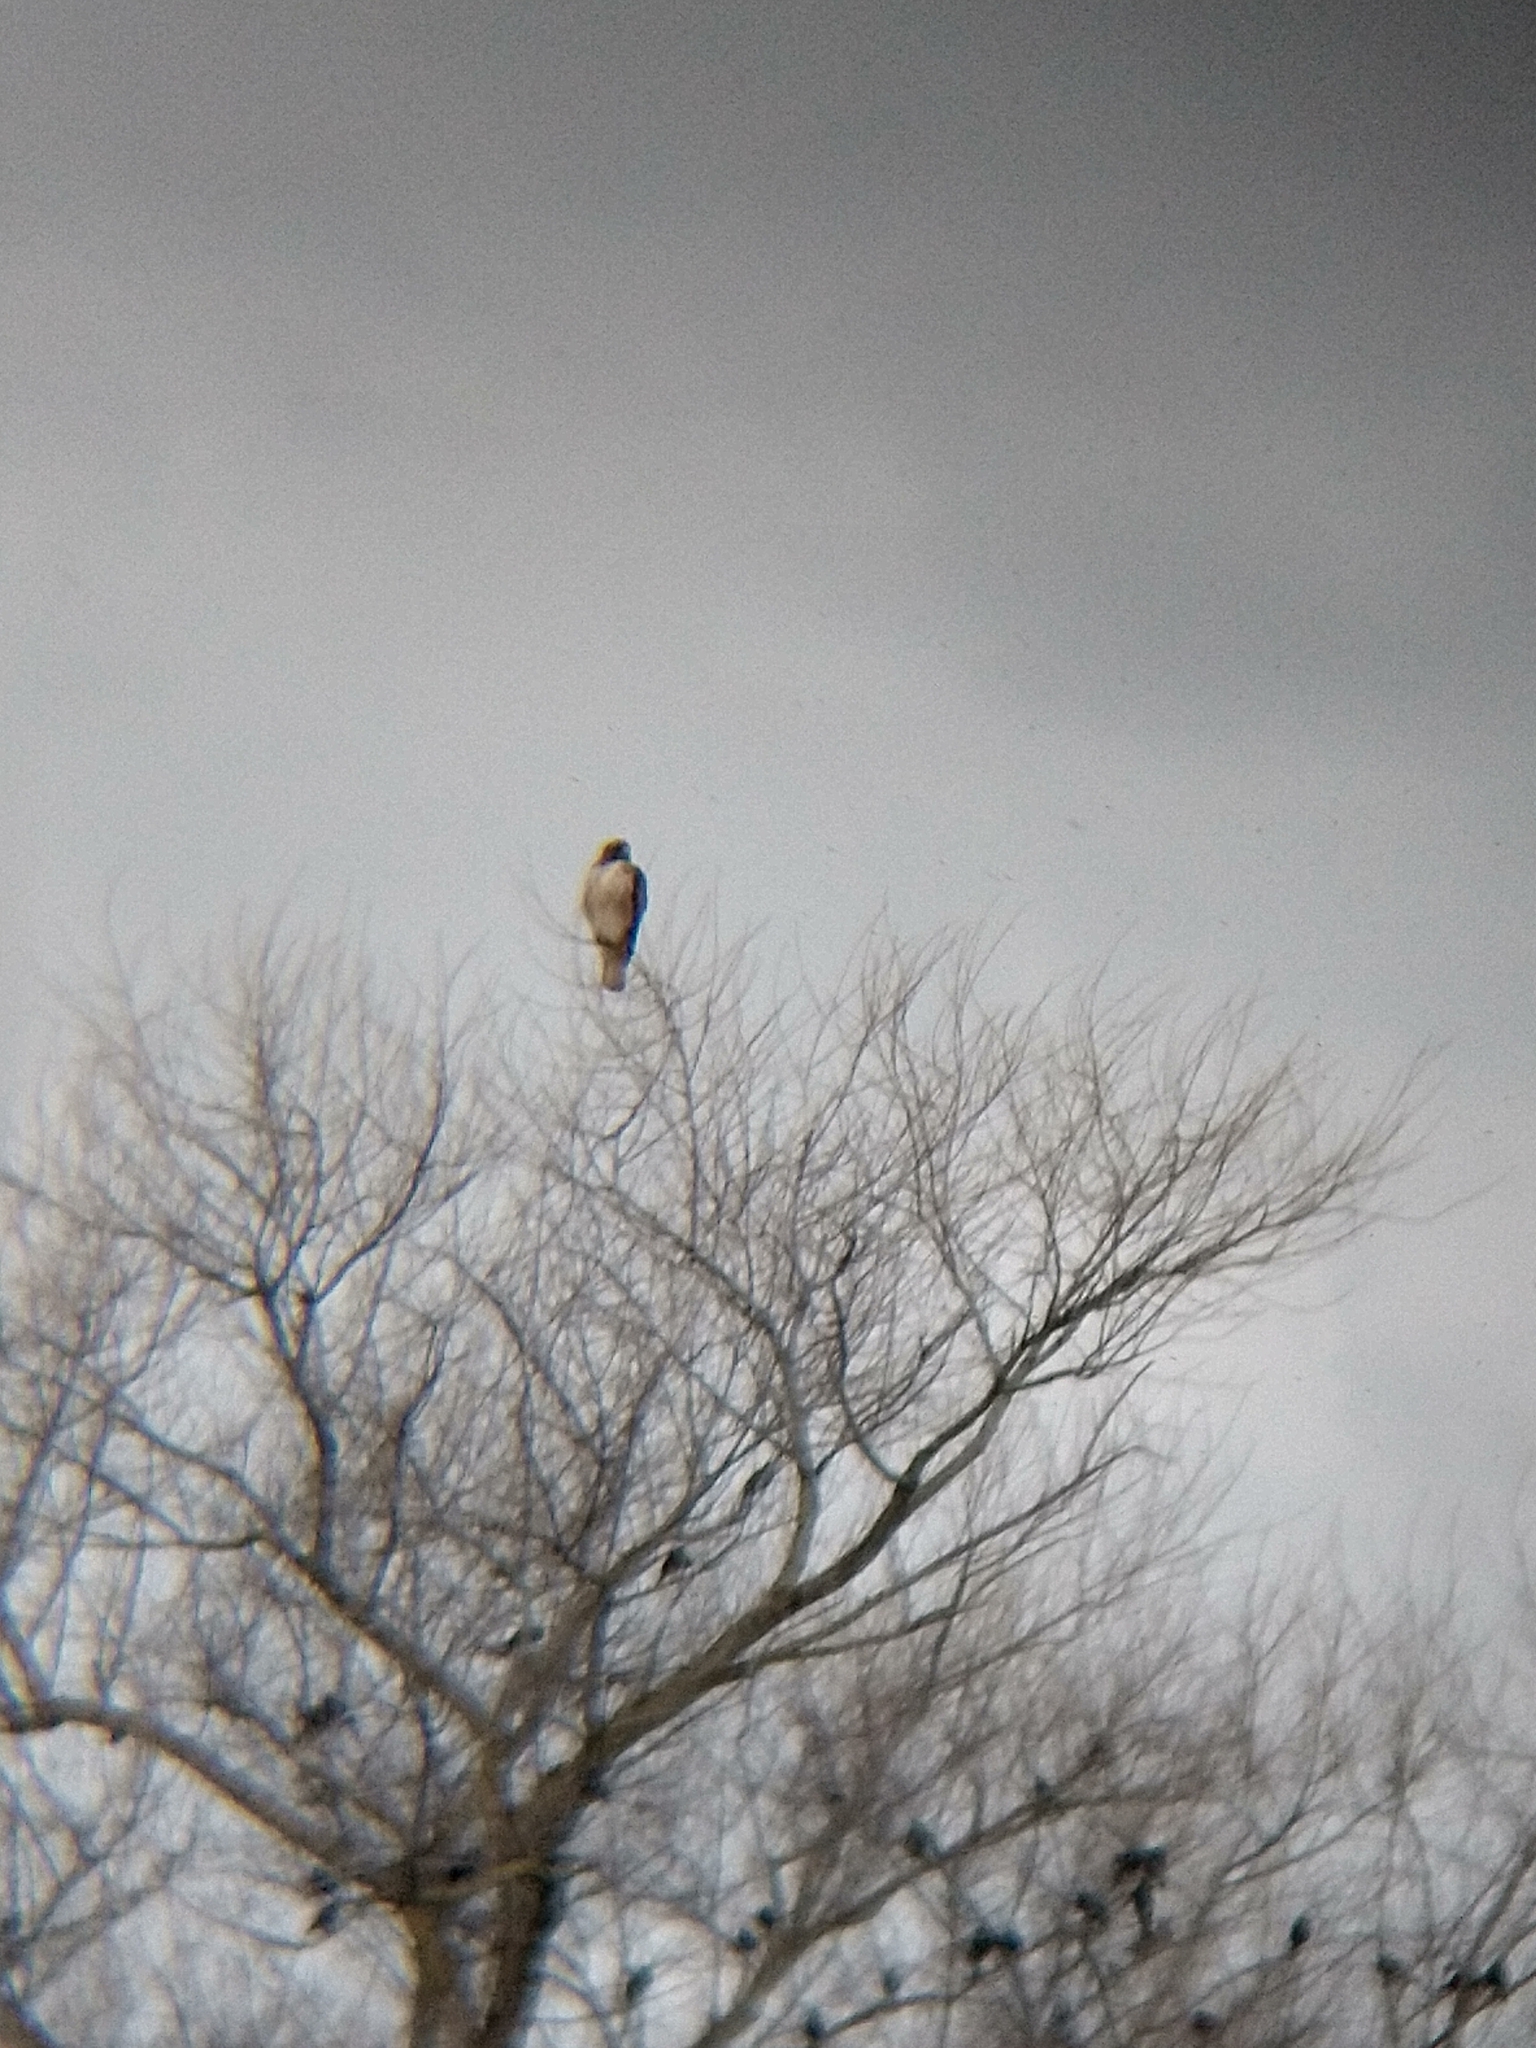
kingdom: Animalia
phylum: Chordata
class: Aves
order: Accipitriformes
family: Accipitridae
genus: Buteo
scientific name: Buteo jamaicensis
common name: Red-tailed hawk
